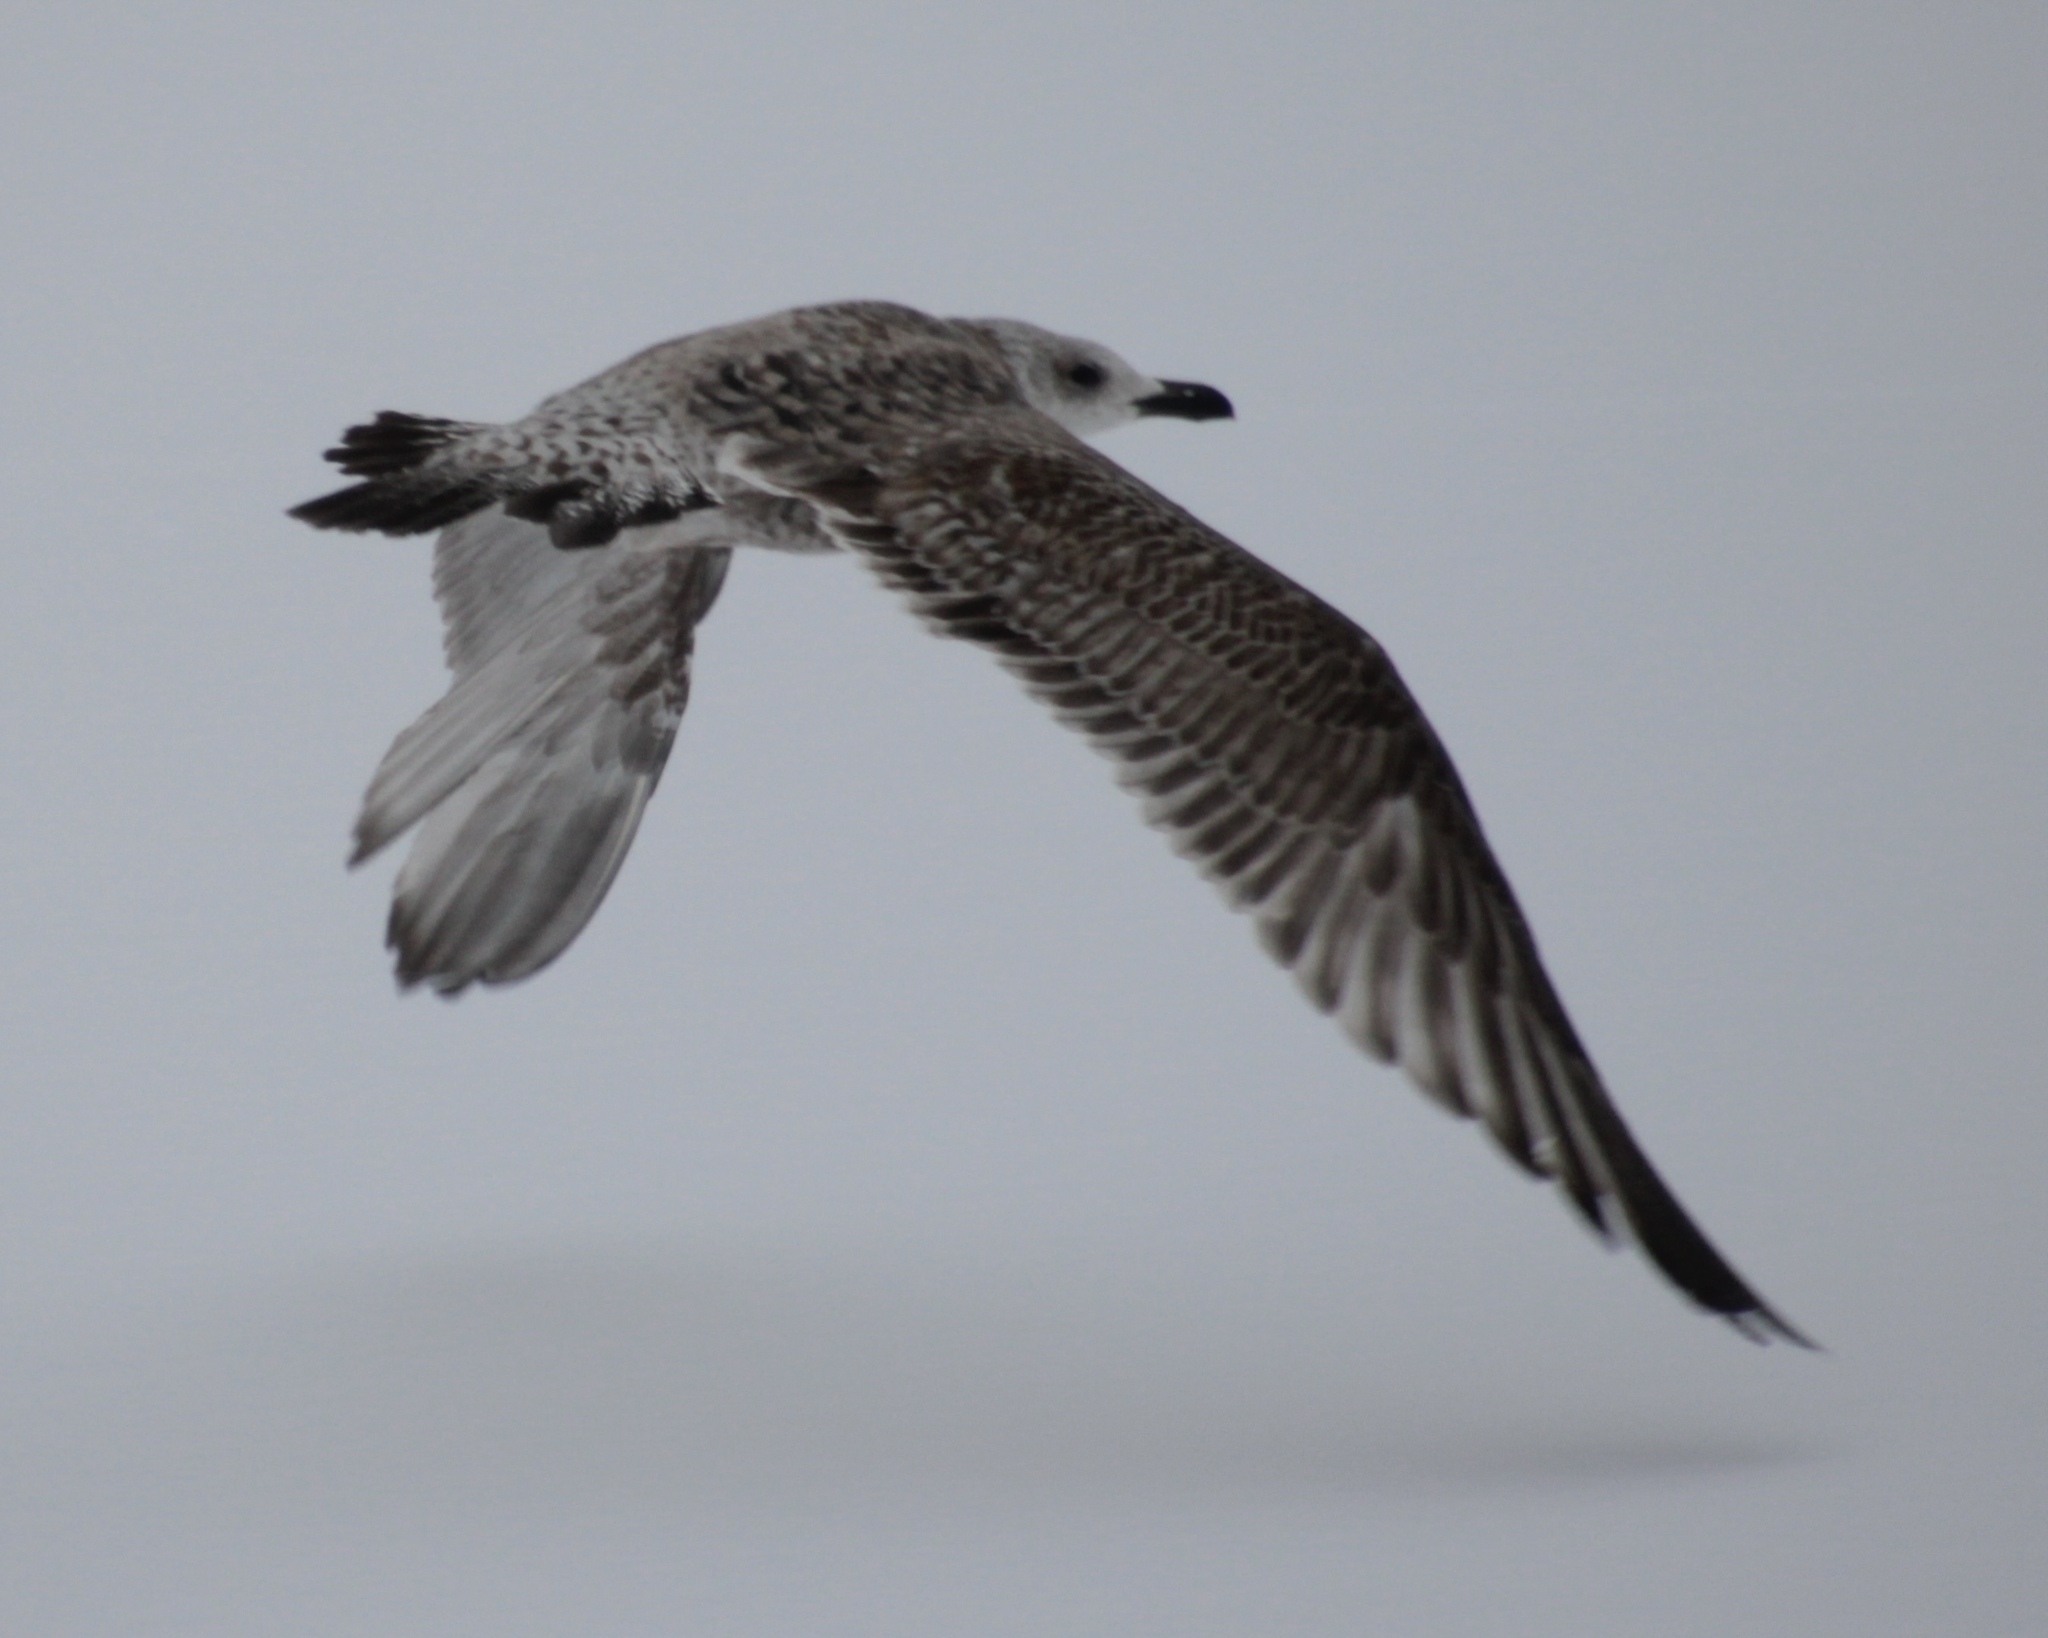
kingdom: Animalia
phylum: Chordata
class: Aves
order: Charadriiformes
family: Laridae
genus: Larus
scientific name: Larus argentatus
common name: Herring gull
